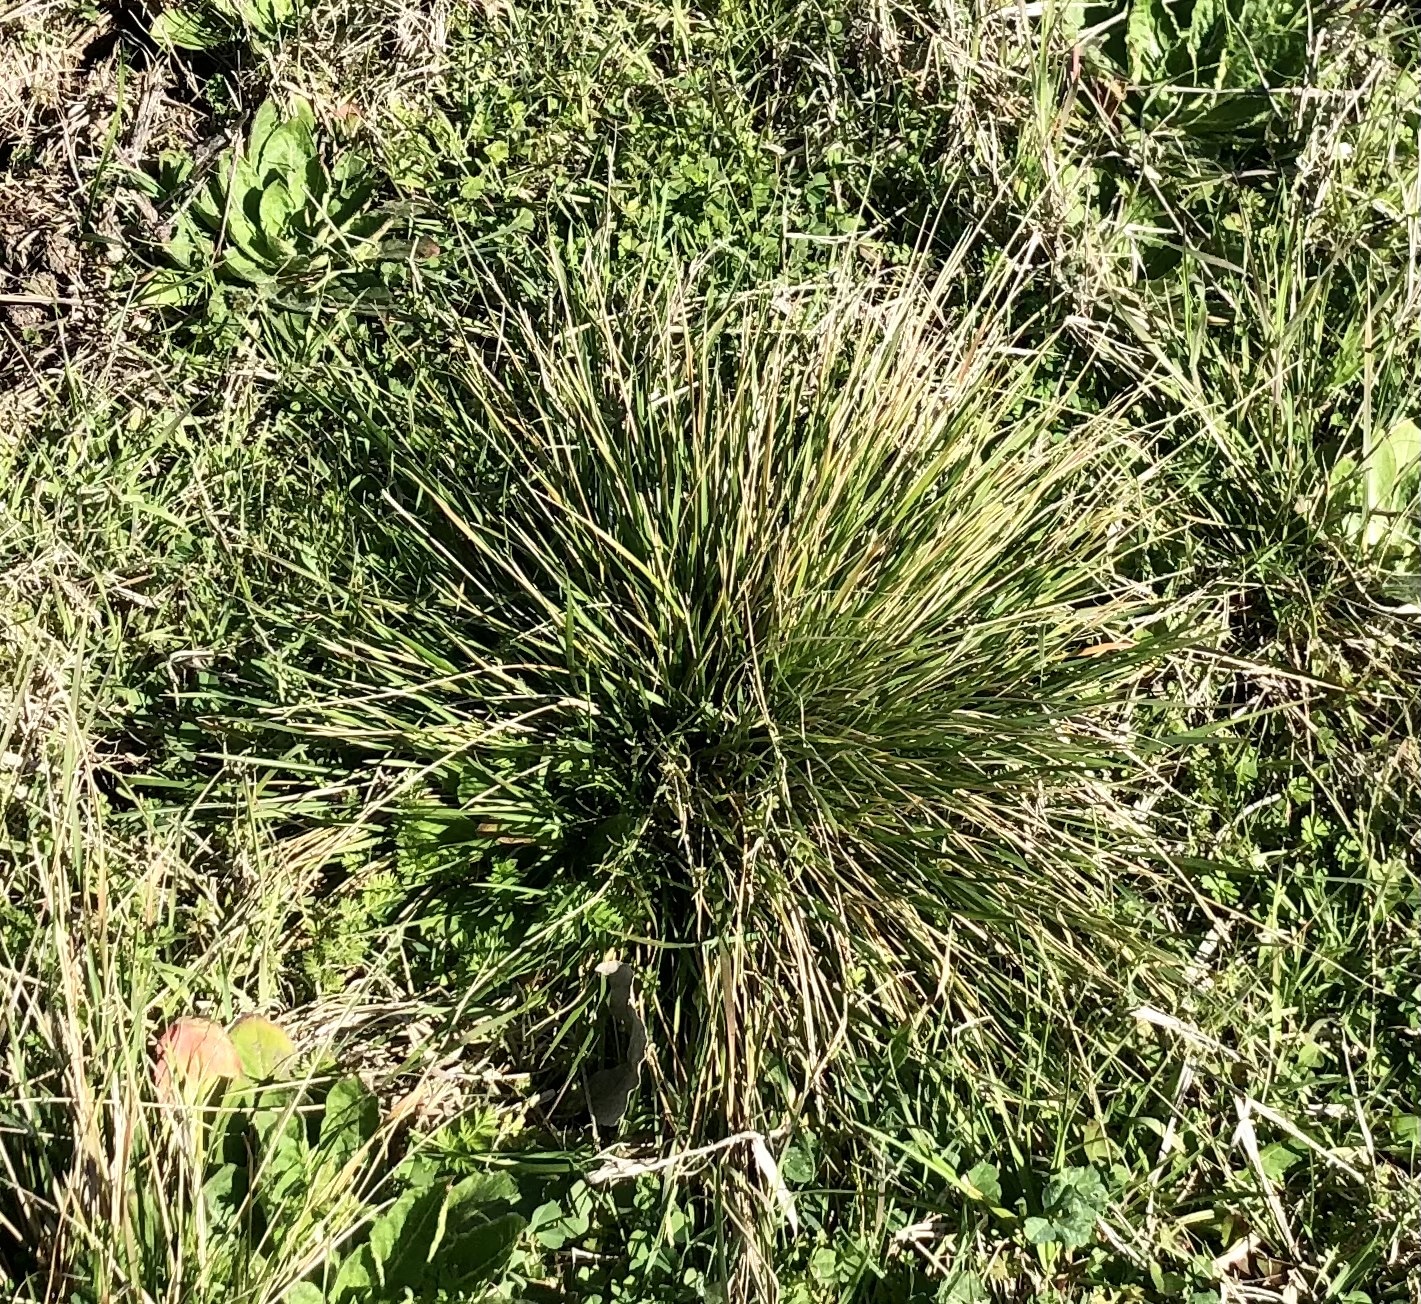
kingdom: Plantae
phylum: Tracheophyta
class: Liliopsida
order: Poales
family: Poaceae
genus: Nassella
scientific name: Nassella leucotricha
